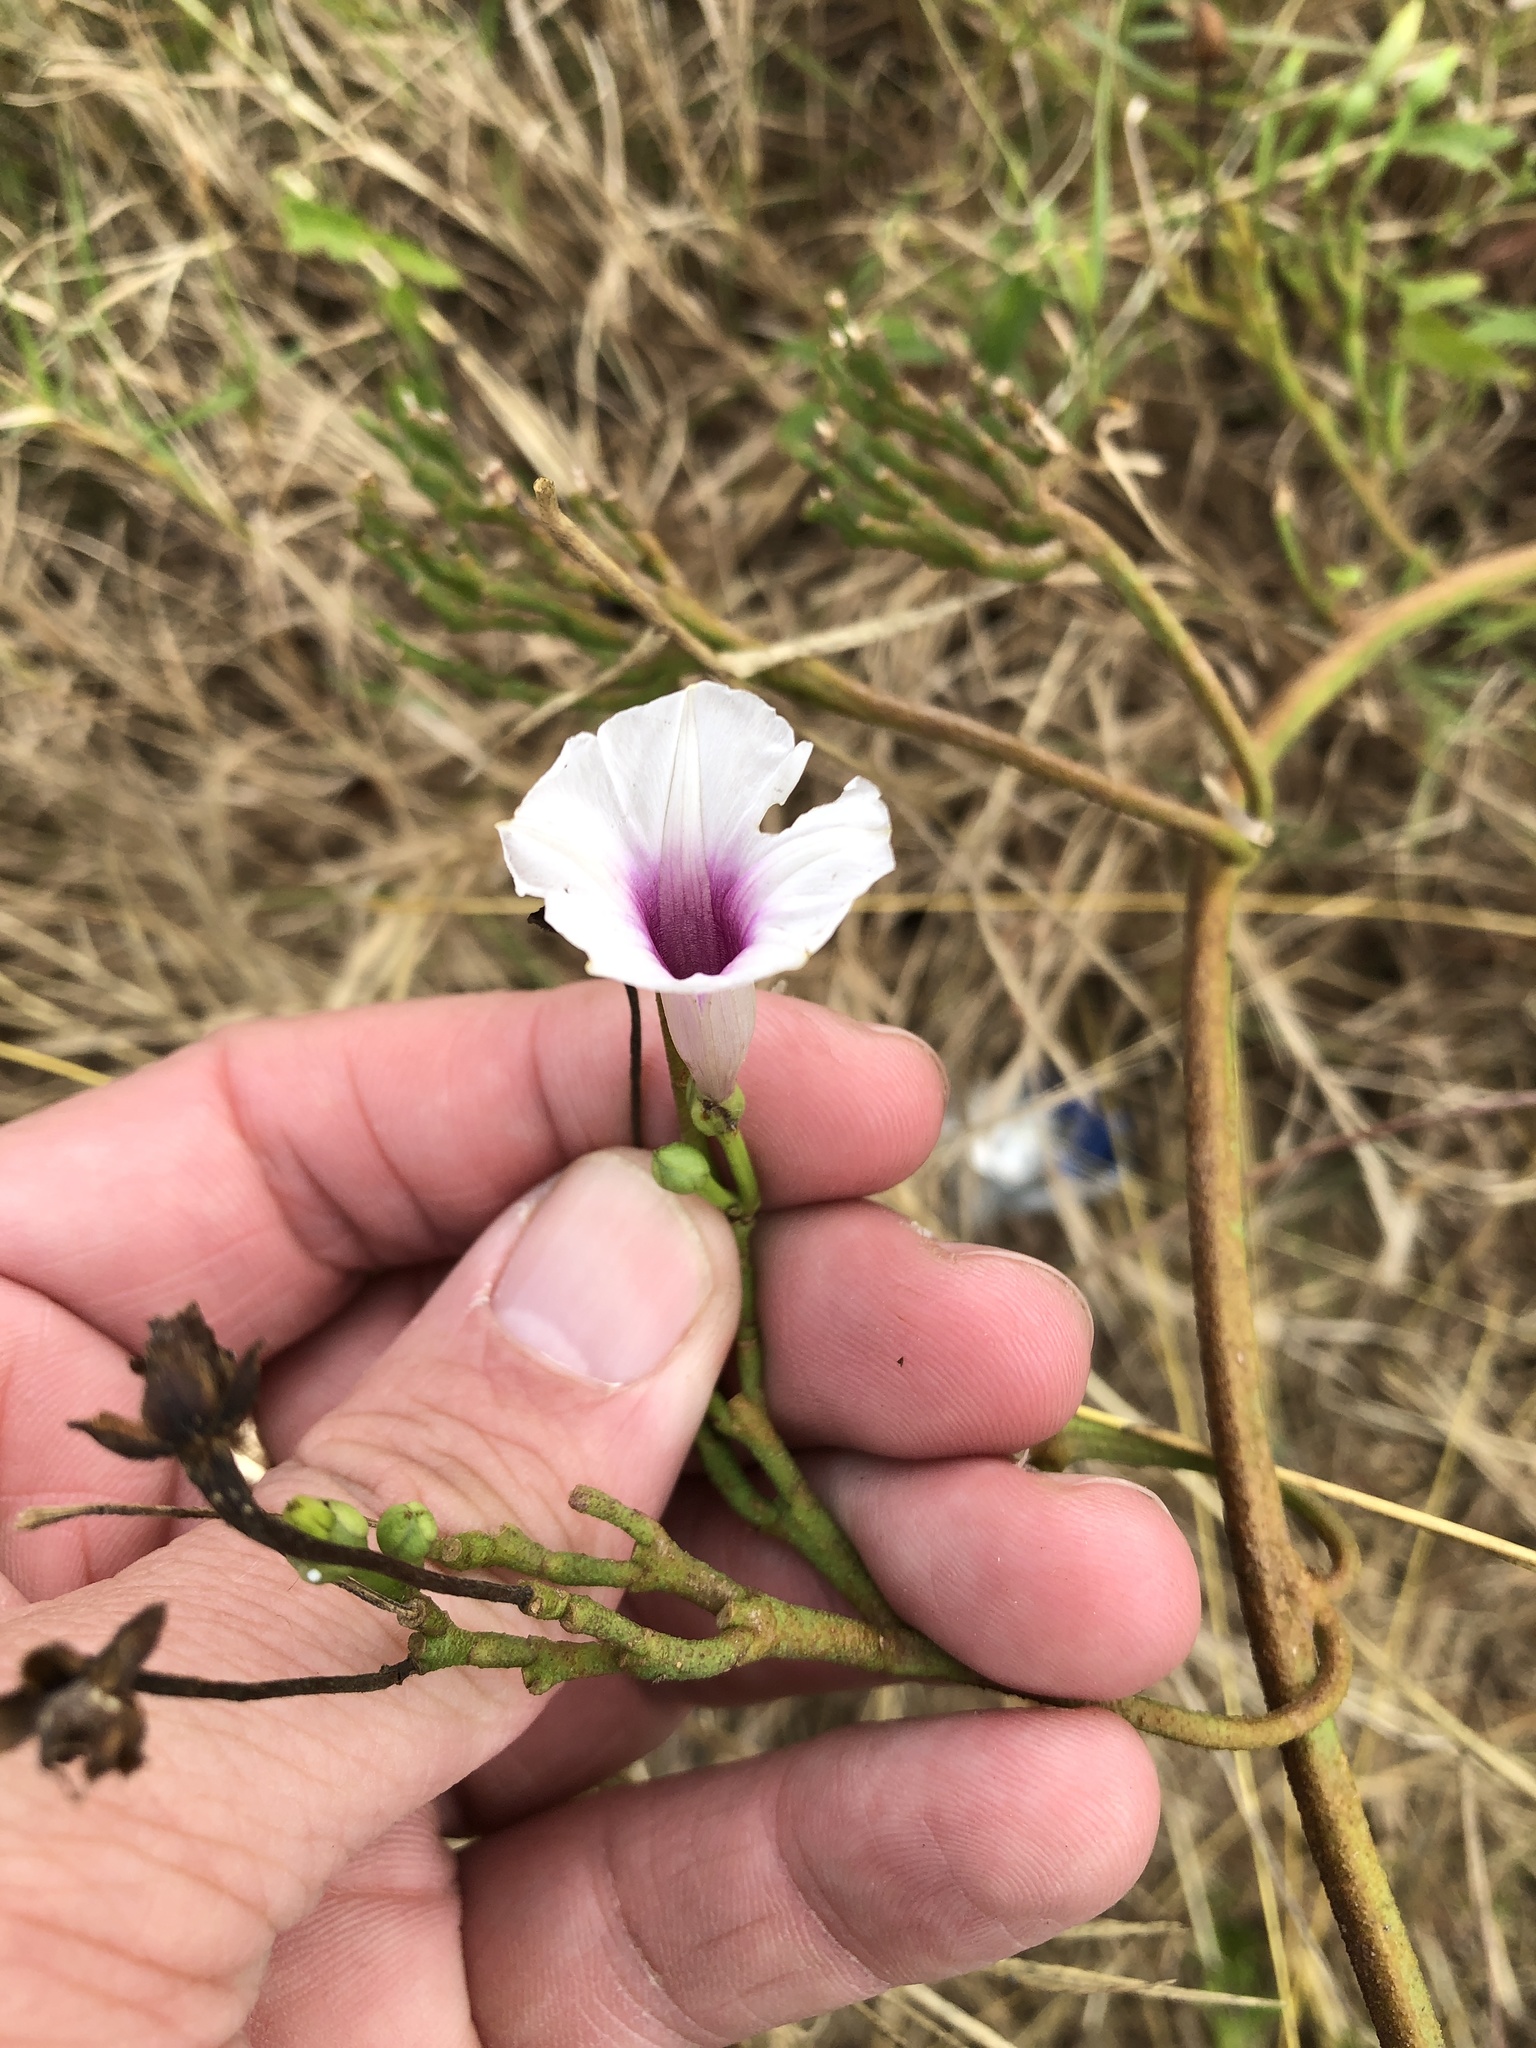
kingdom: Plantae
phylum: Tracheophyta
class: Magnoliopsida
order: Solanales
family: Convolvulaceae
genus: Ipomoea
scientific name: Ipomoea amnicola
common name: Redcenter morning-glory
